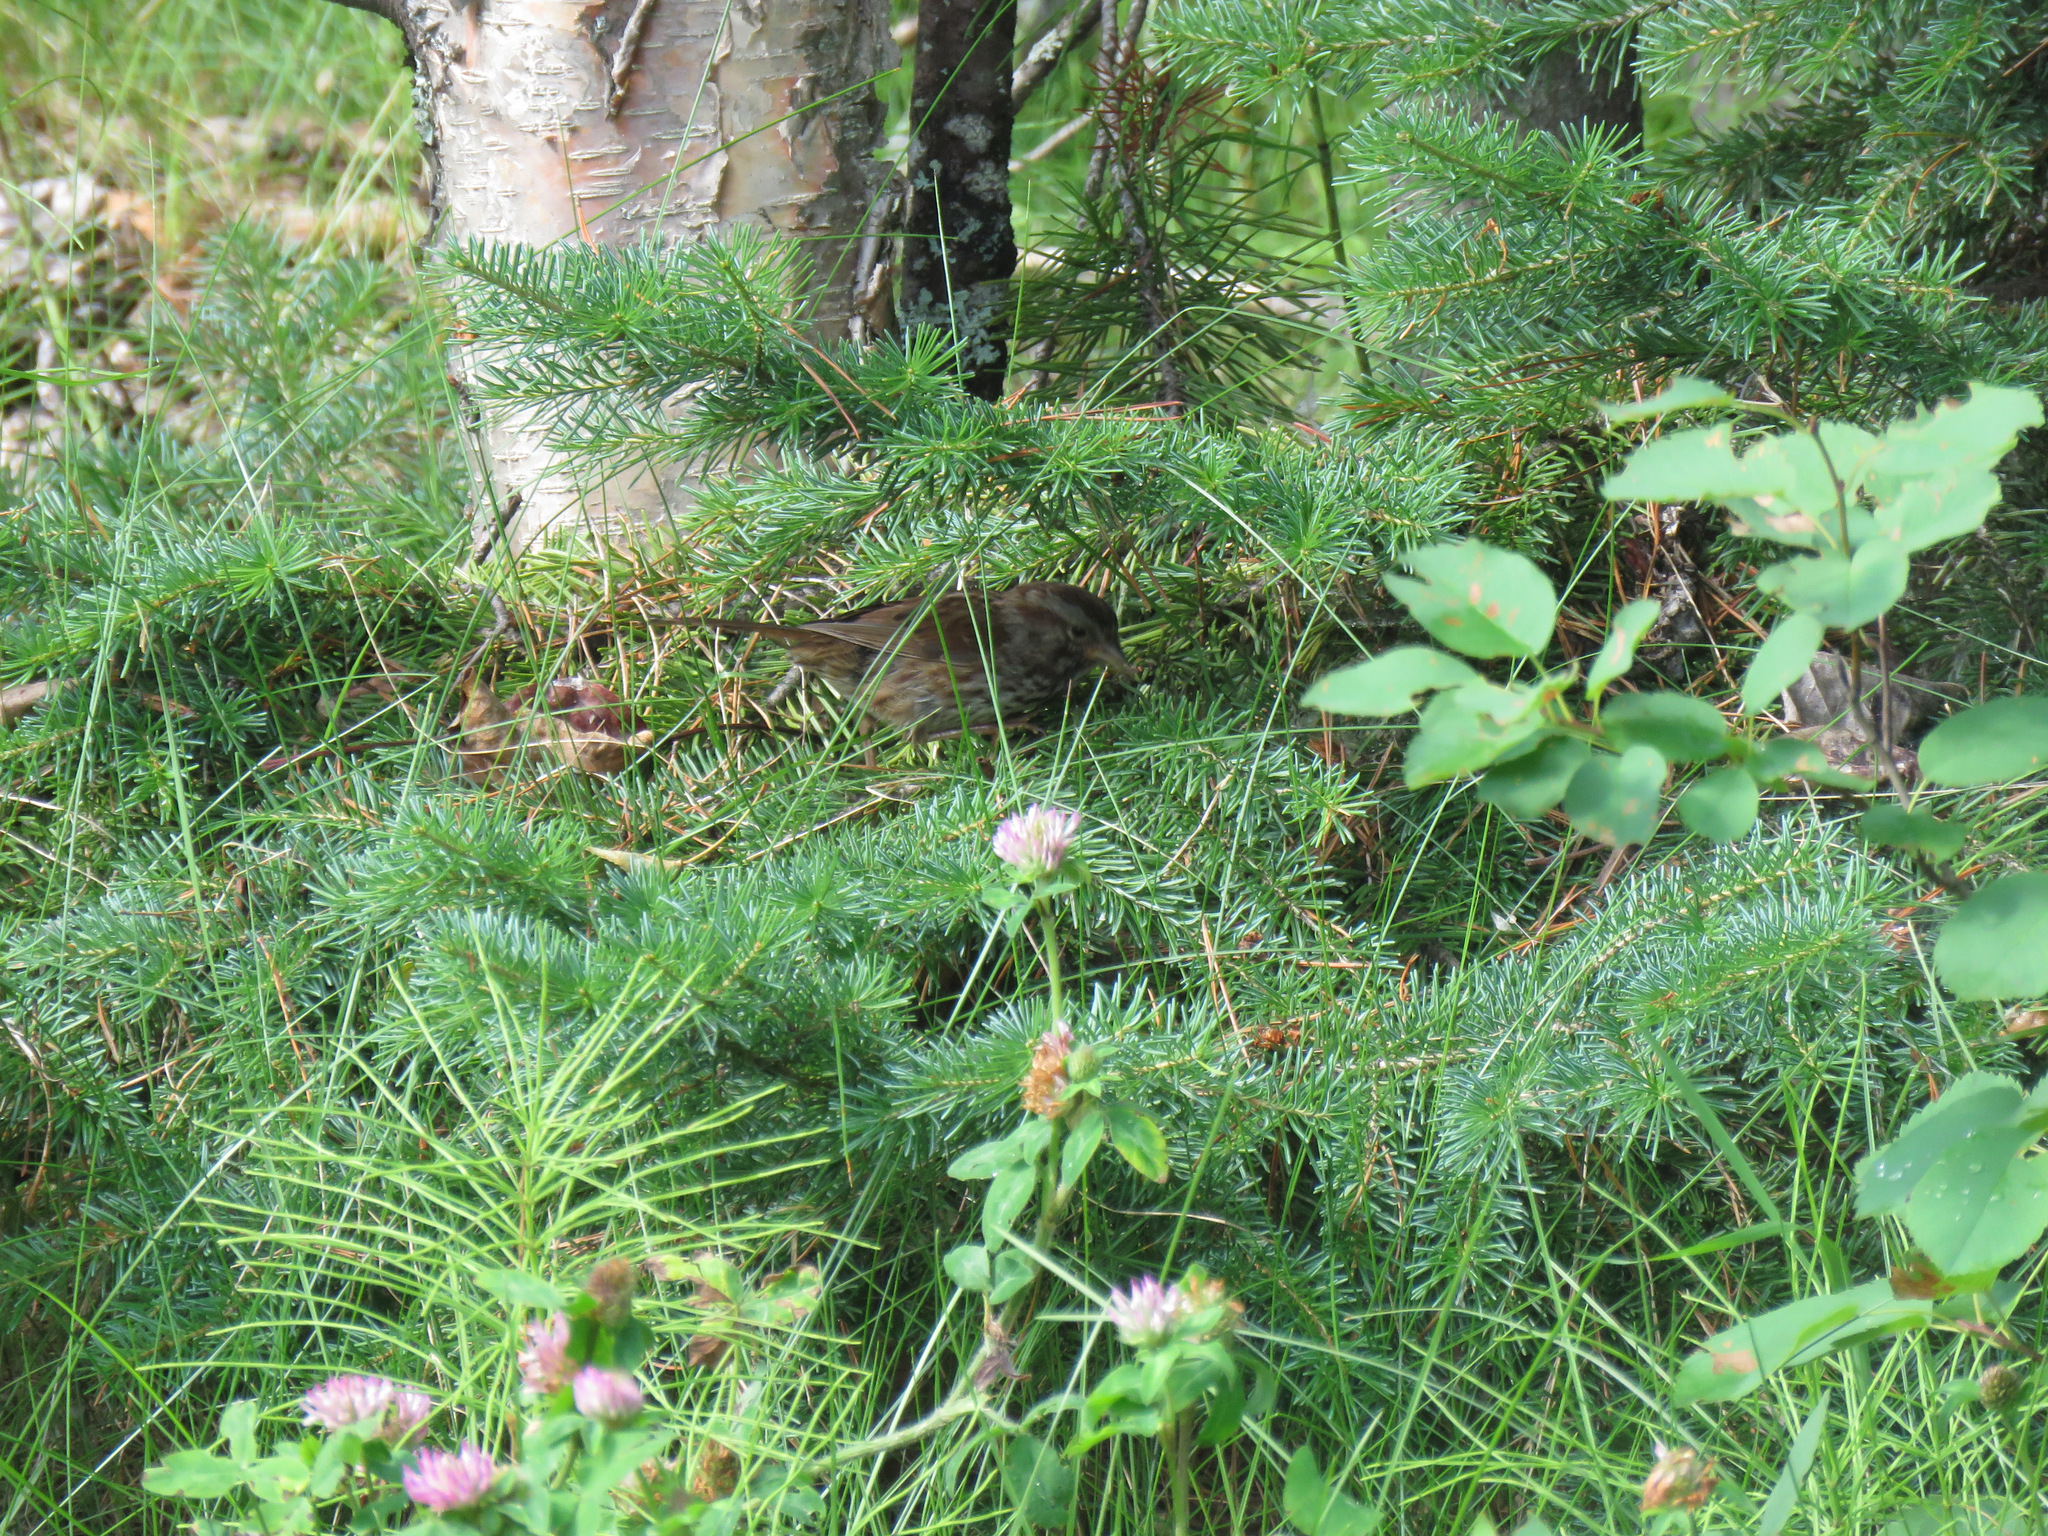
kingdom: Animalia
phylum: Chordata
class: Aves
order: Passeriformes
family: Passerellidae
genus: Melospiza
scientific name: Melospiza melodia
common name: Song sparrow
